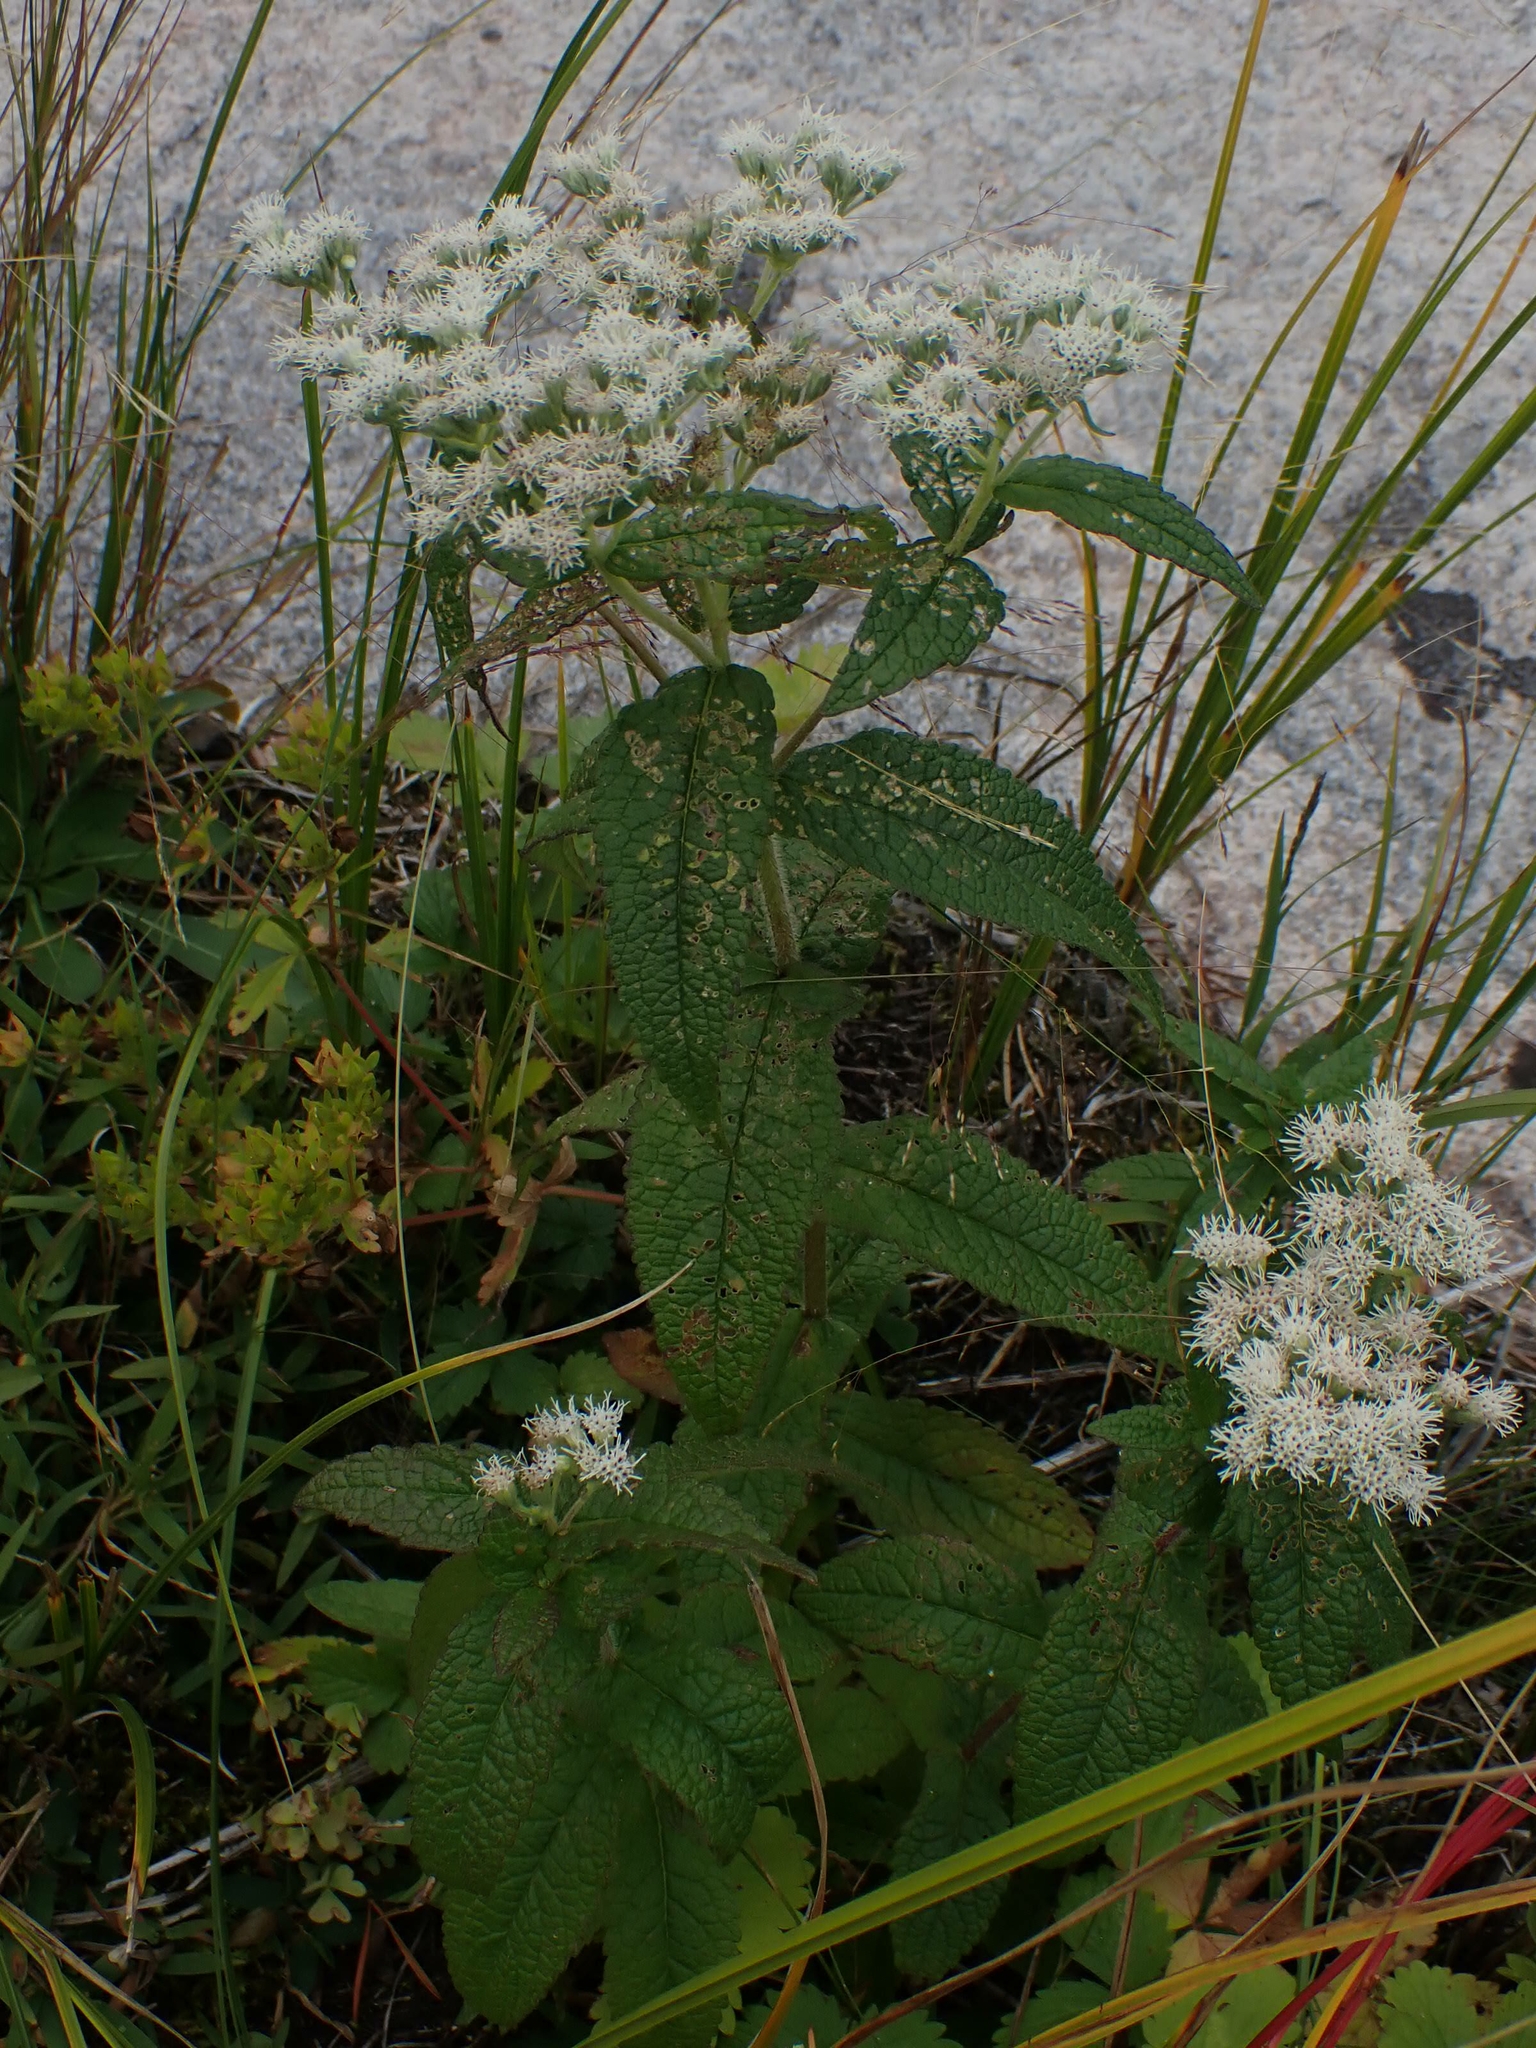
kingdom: Plantae
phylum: Tracheophyta
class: Magnoliopsida
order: Asterales
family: Asteraceae
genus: Eupatorium
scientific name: Eupatorium perfoliatum
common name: Boneset
